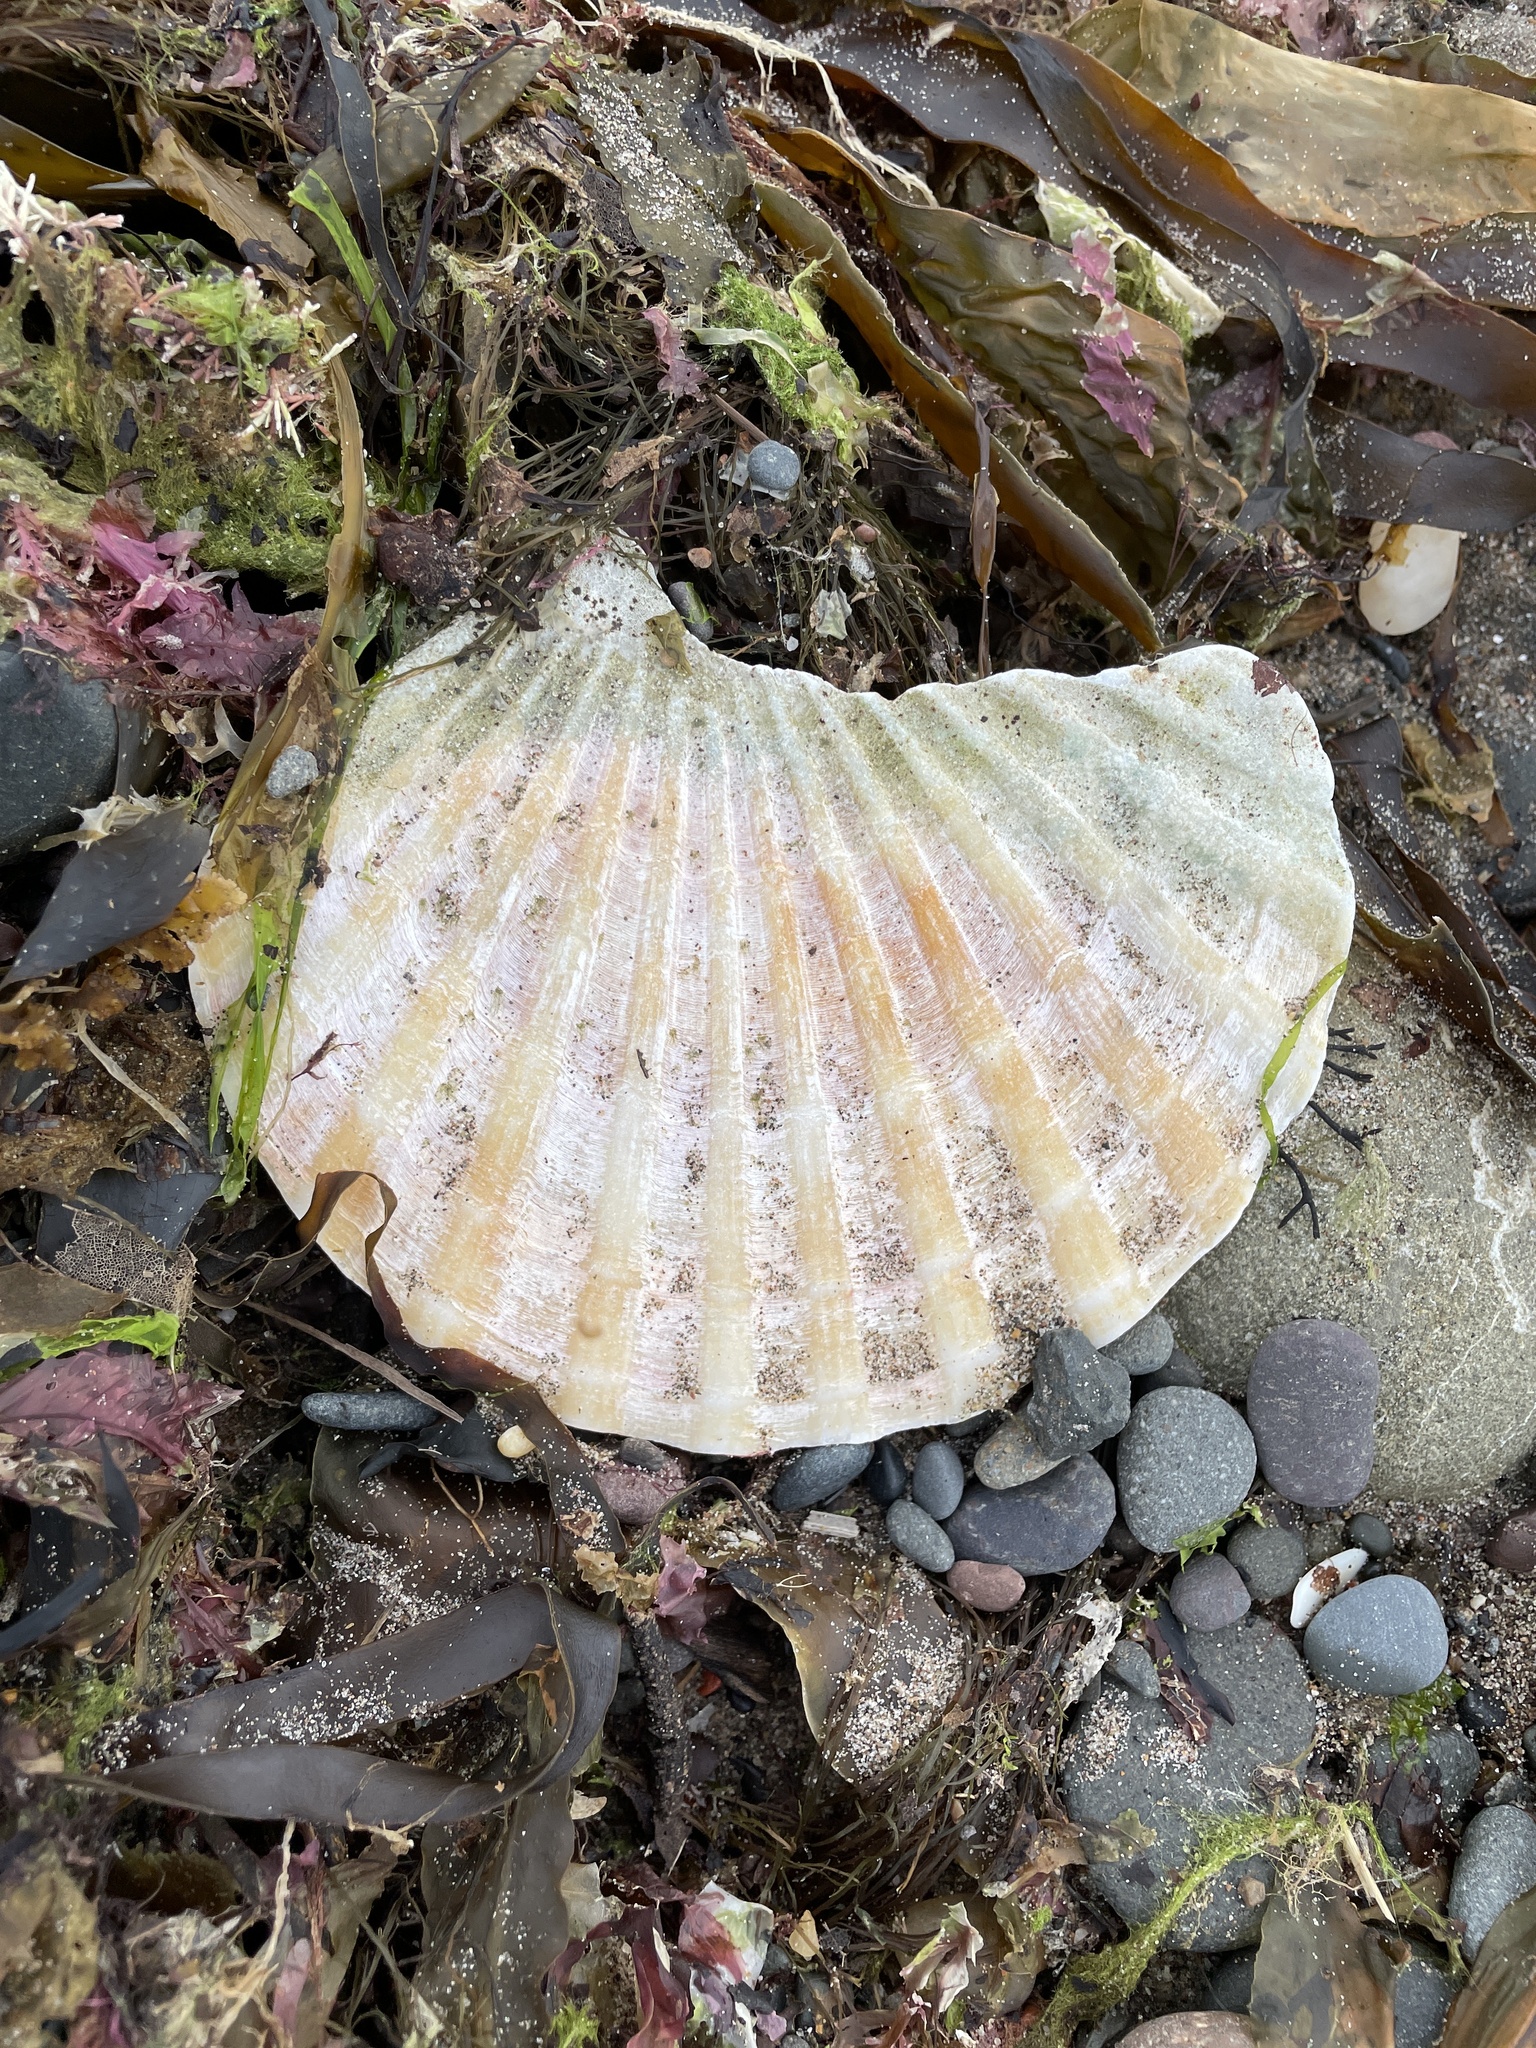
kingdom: Animalia
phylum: Mollusca
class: Bivalvia
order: Pectinida
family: Pectinidae
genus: Pecten
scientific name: Pecten maximus
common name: Great scallop
